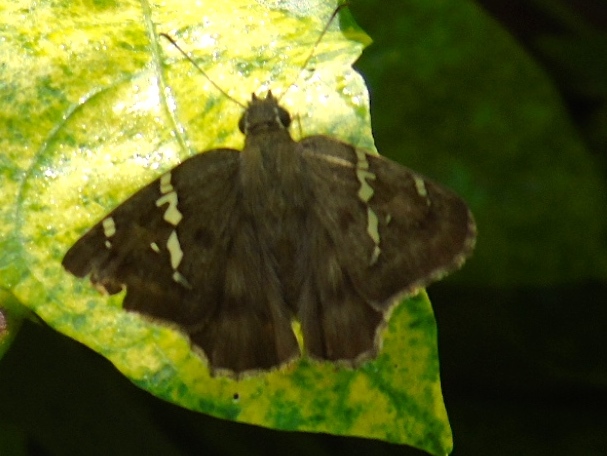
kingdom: Animalia
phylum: Arthropoda
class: Insecta
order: Lepidoptera
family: Hesperiidae
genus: Autochton
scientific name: Autochton potrillo
